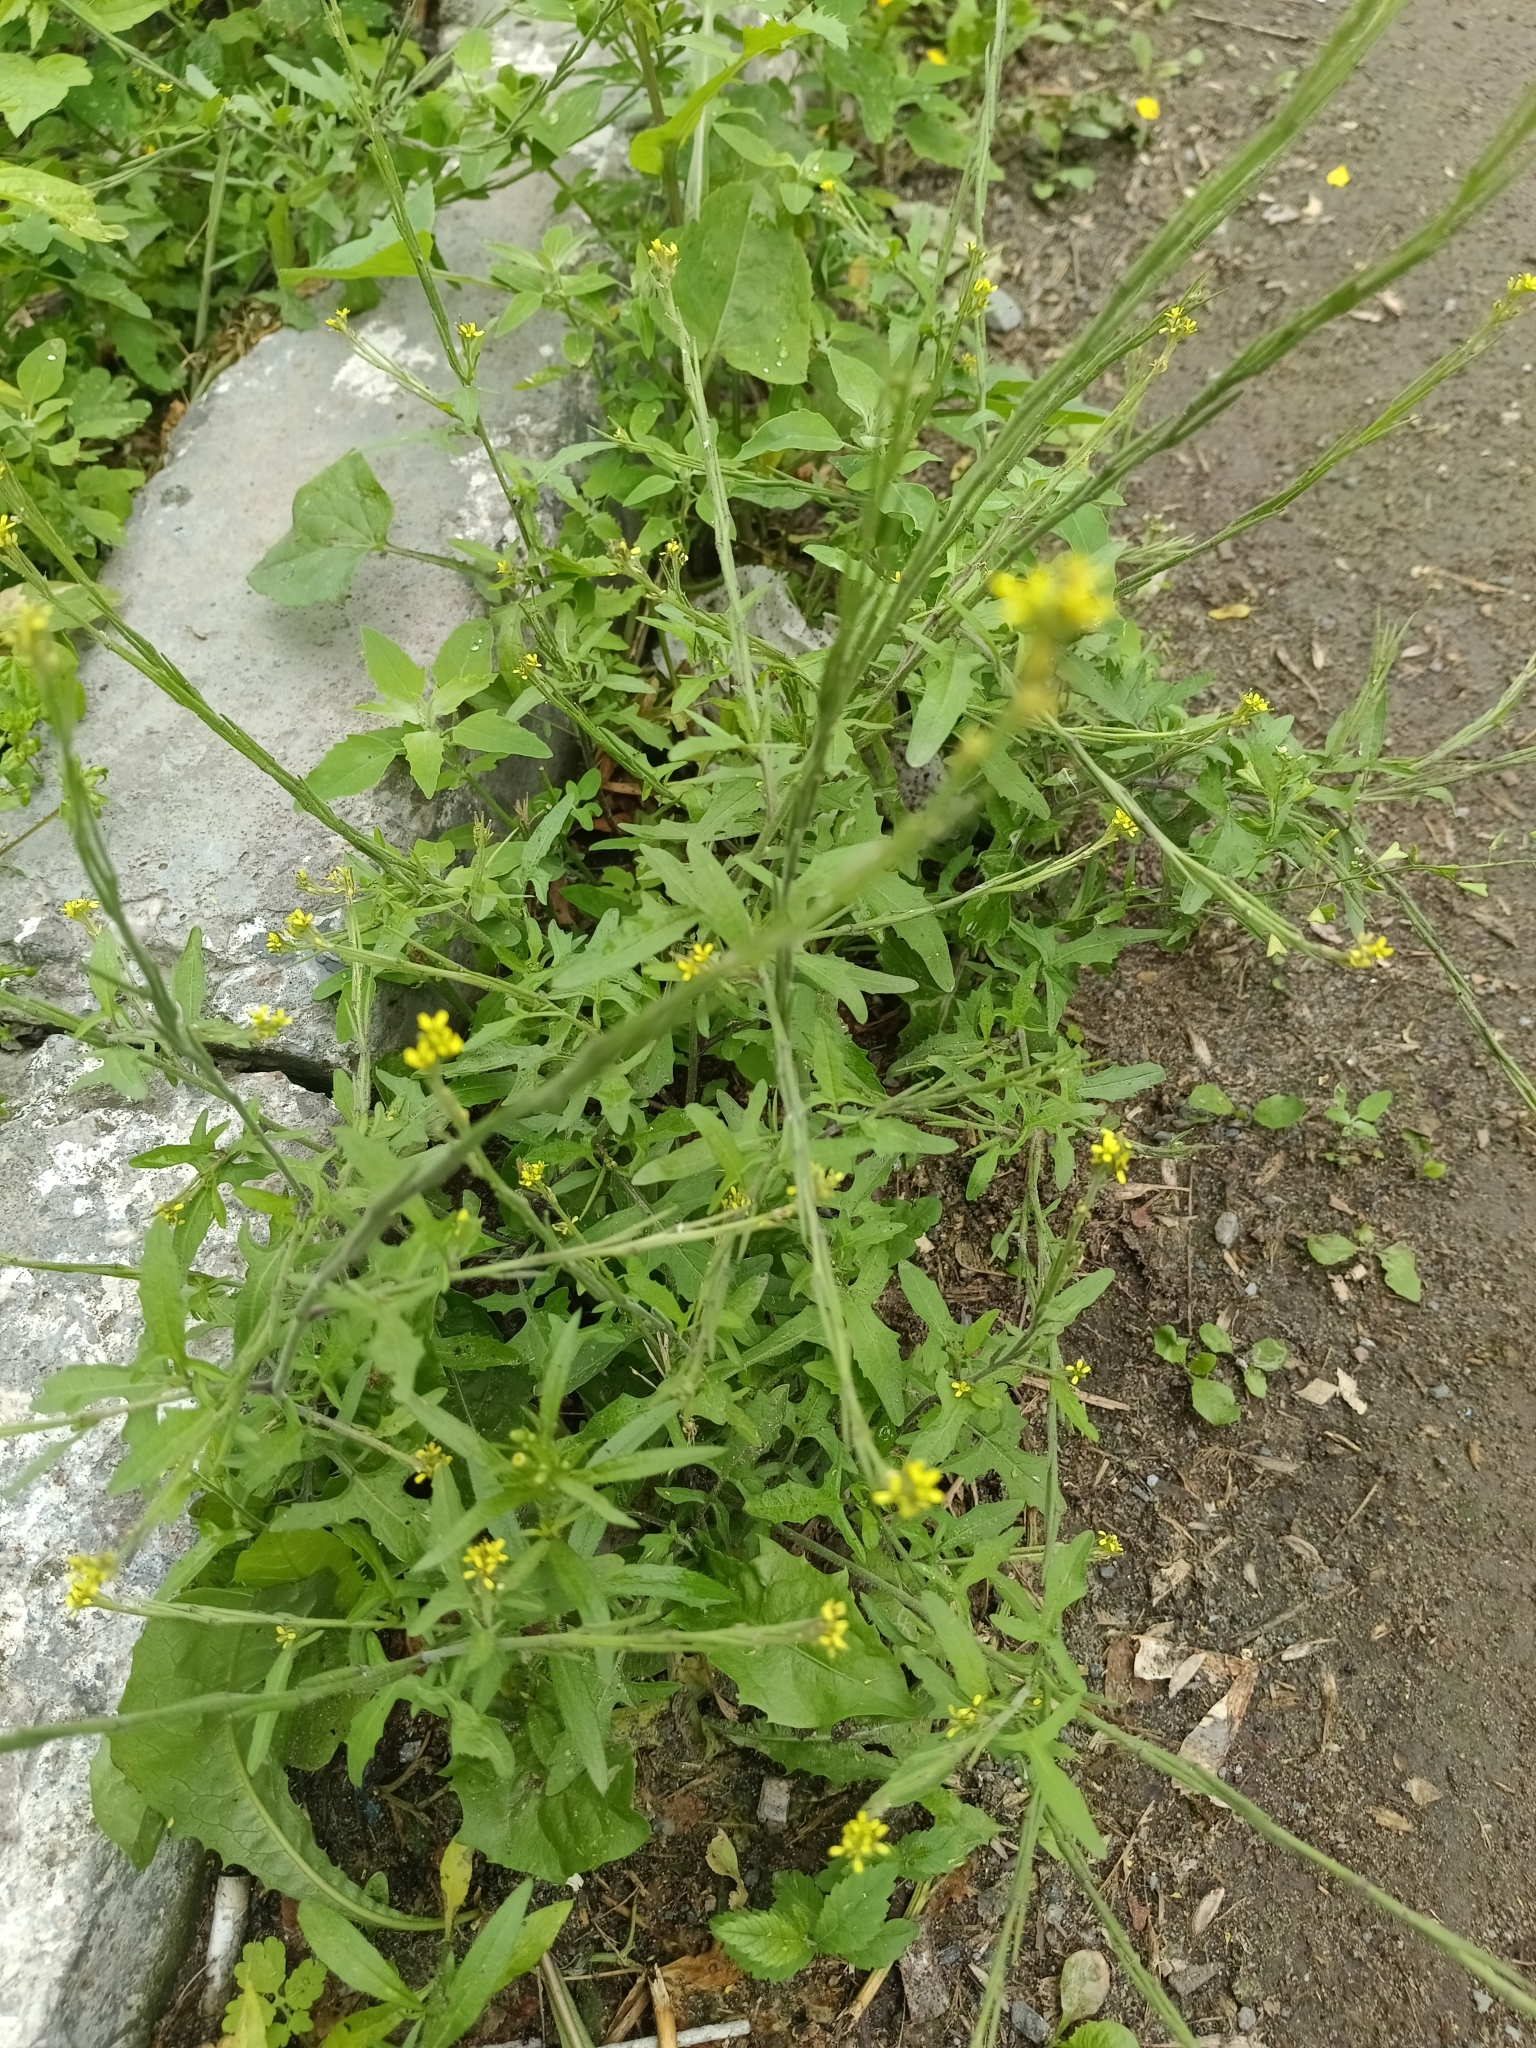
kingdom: Plantae
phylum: Tracheophyta
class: Magnoliopsida
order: Brassicales
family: Brassicaceae
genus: Sisymbrium
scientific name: Sisymbrium officinale
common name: Hedge mustard
